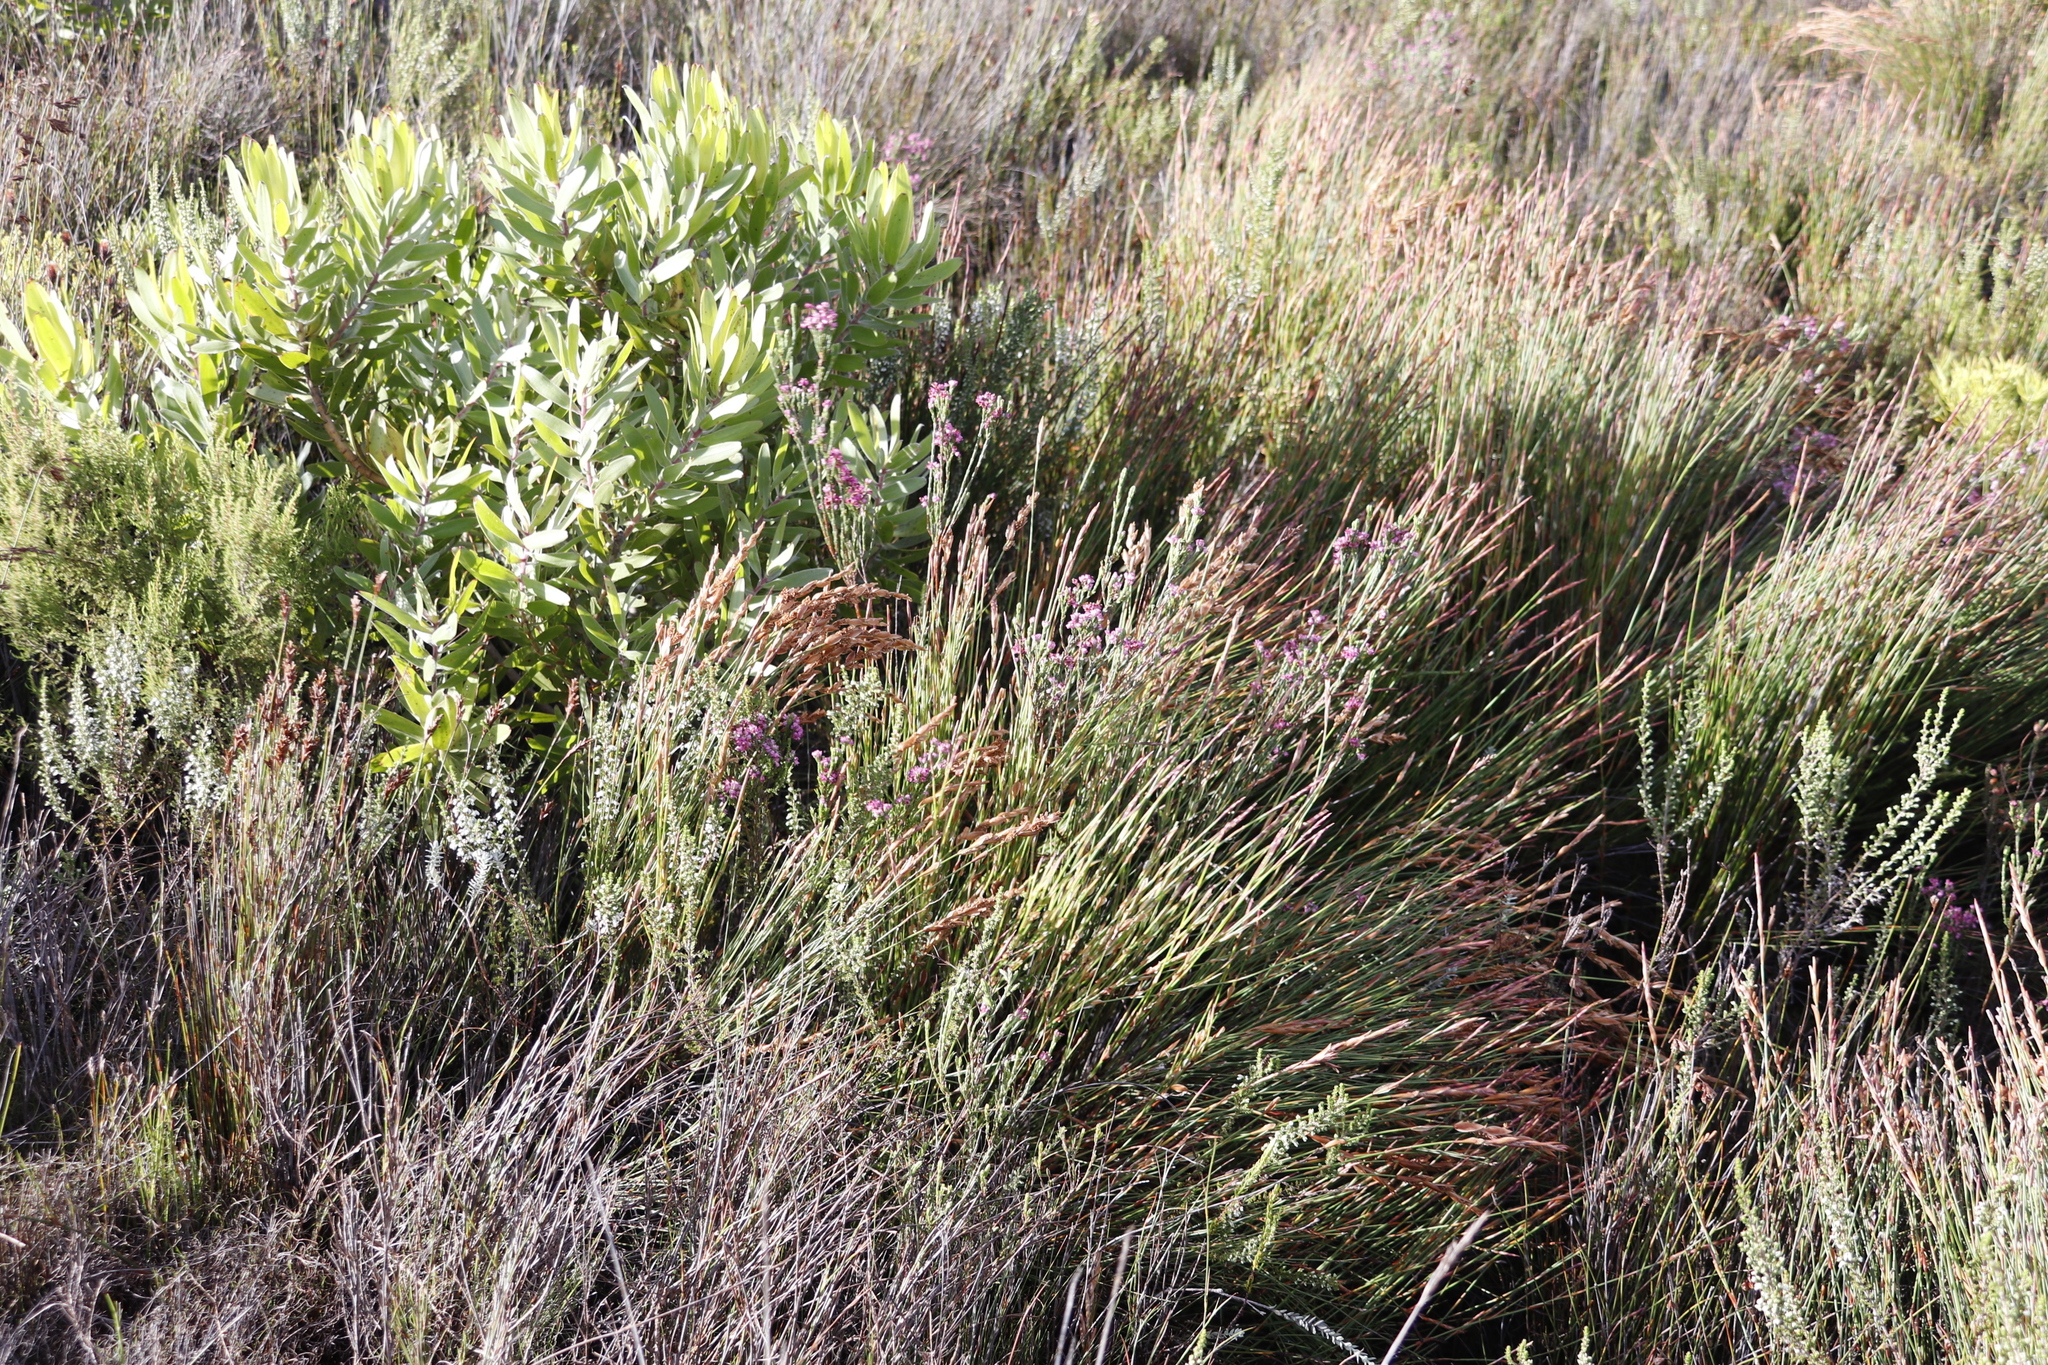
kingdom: Plantae
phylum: Tracheophyta
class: Magnoliopsida
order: Ericales
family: Ericaceae
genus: Erica
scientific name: Erica corifolia
